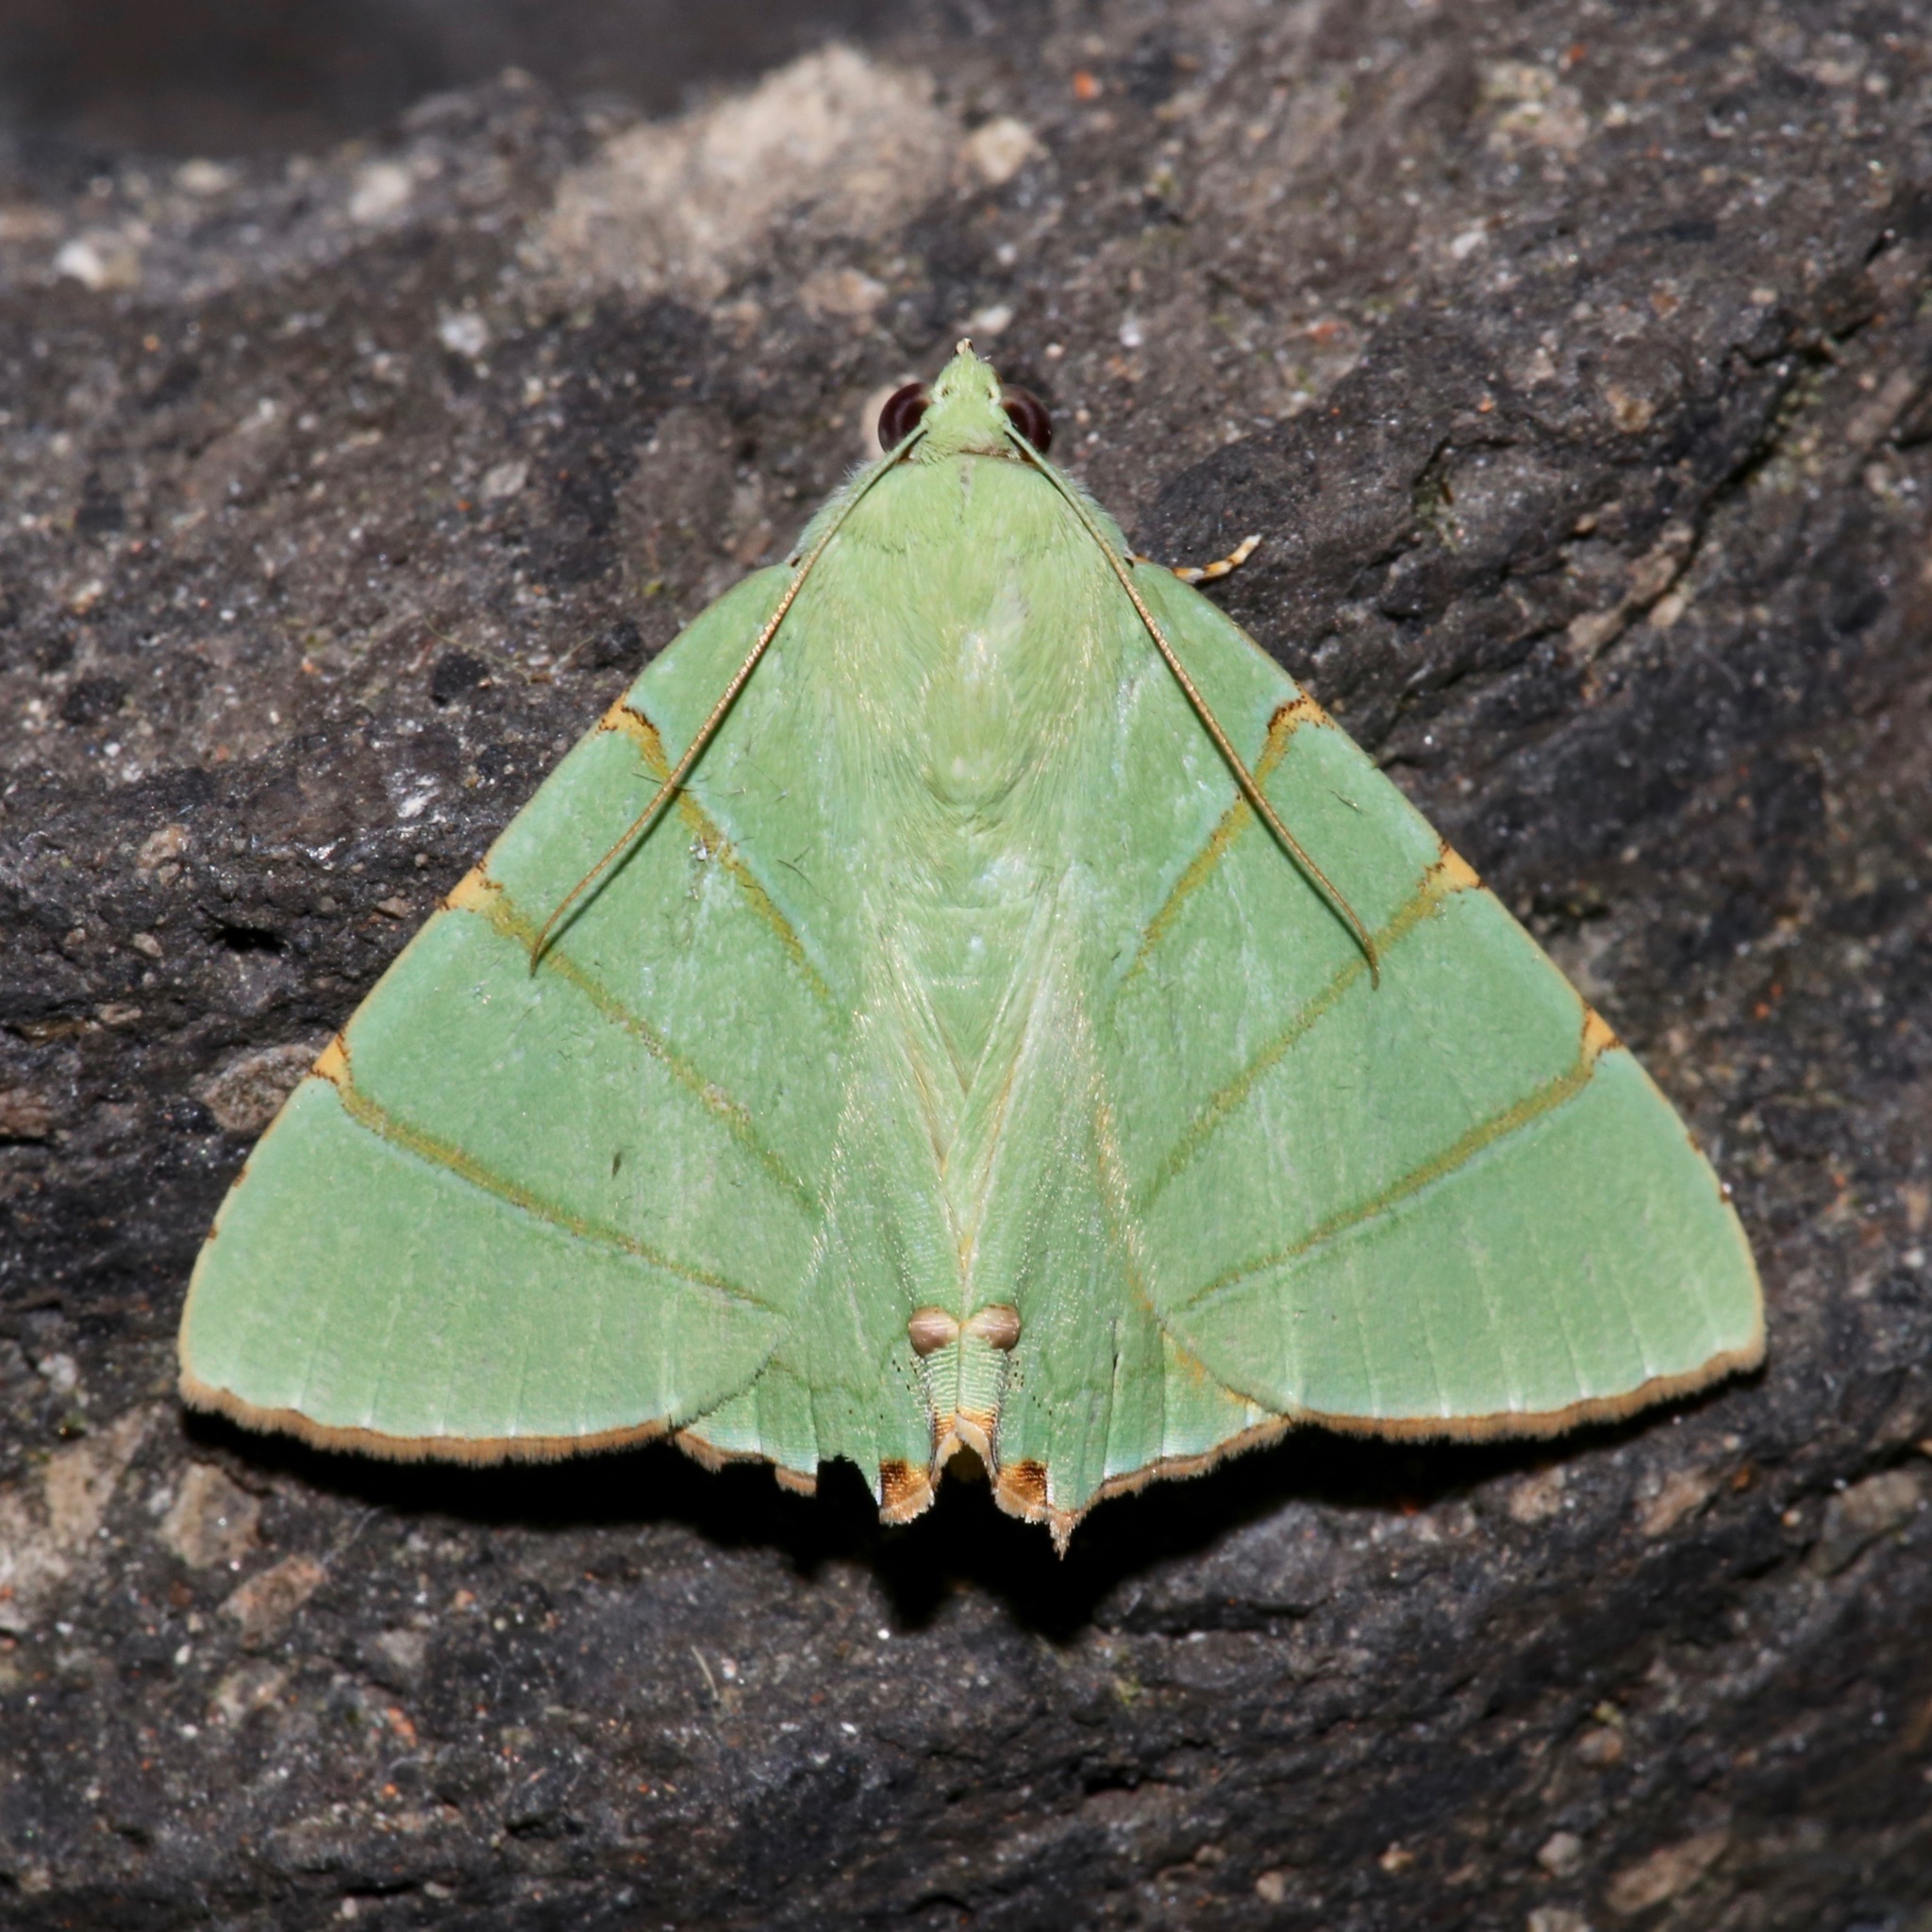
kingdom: Animalia
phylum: Arthropoda
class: Insecta
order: Lepidoptera
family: Erebidae
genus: Eulepidotis
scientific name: Eulepidotis viridissima
